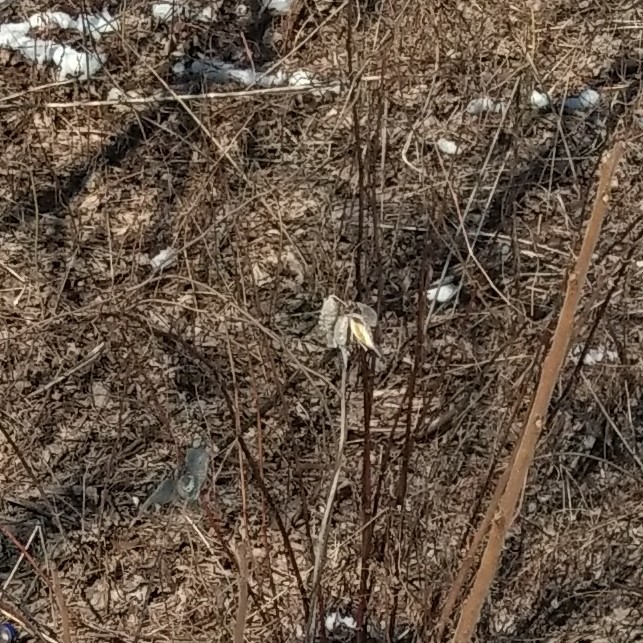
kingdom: Plantae
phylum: Tracheophyta
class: Magnoliopsida
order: Gentianales
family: Apocynaceae
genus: Asclepias
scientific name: Asclepias syriaca
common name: Common milkweed
